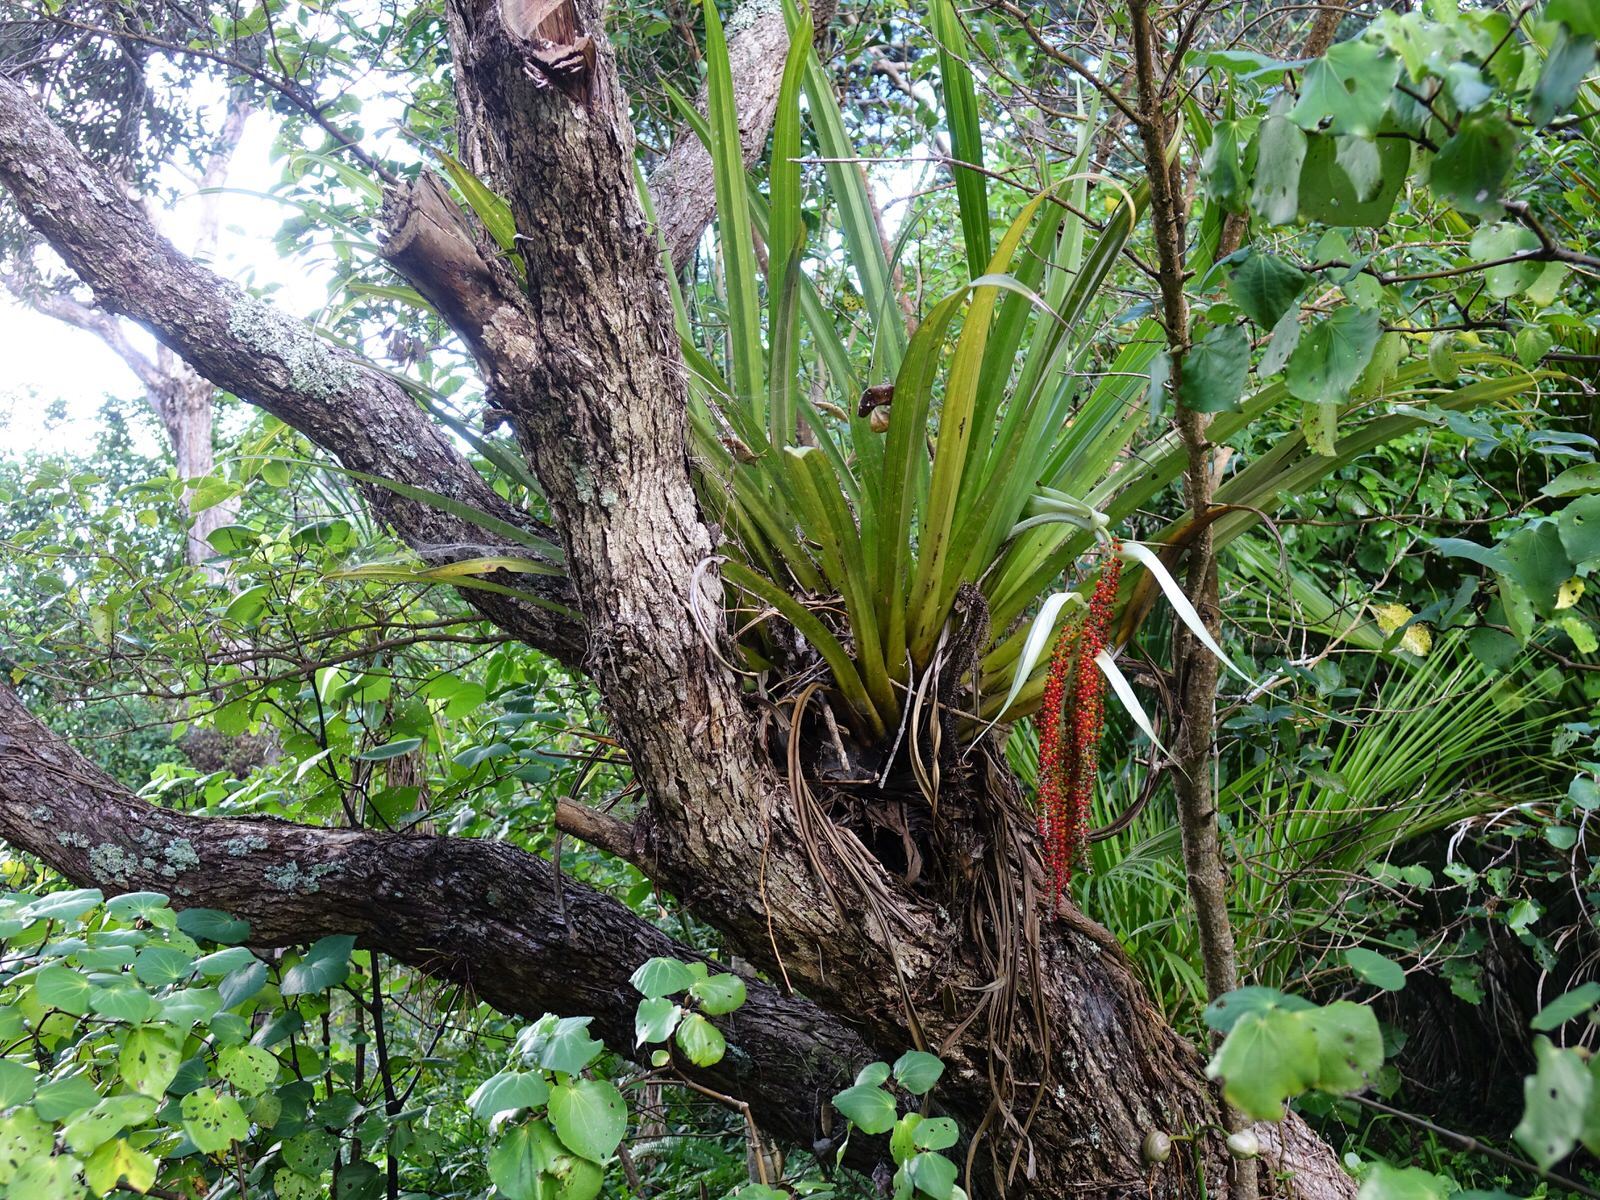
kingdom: Plantae
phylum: Tracheophyta
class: Liliopsida
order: Asparagales
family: Asteliaceae
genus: Astelia
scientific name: Astelia hastata
